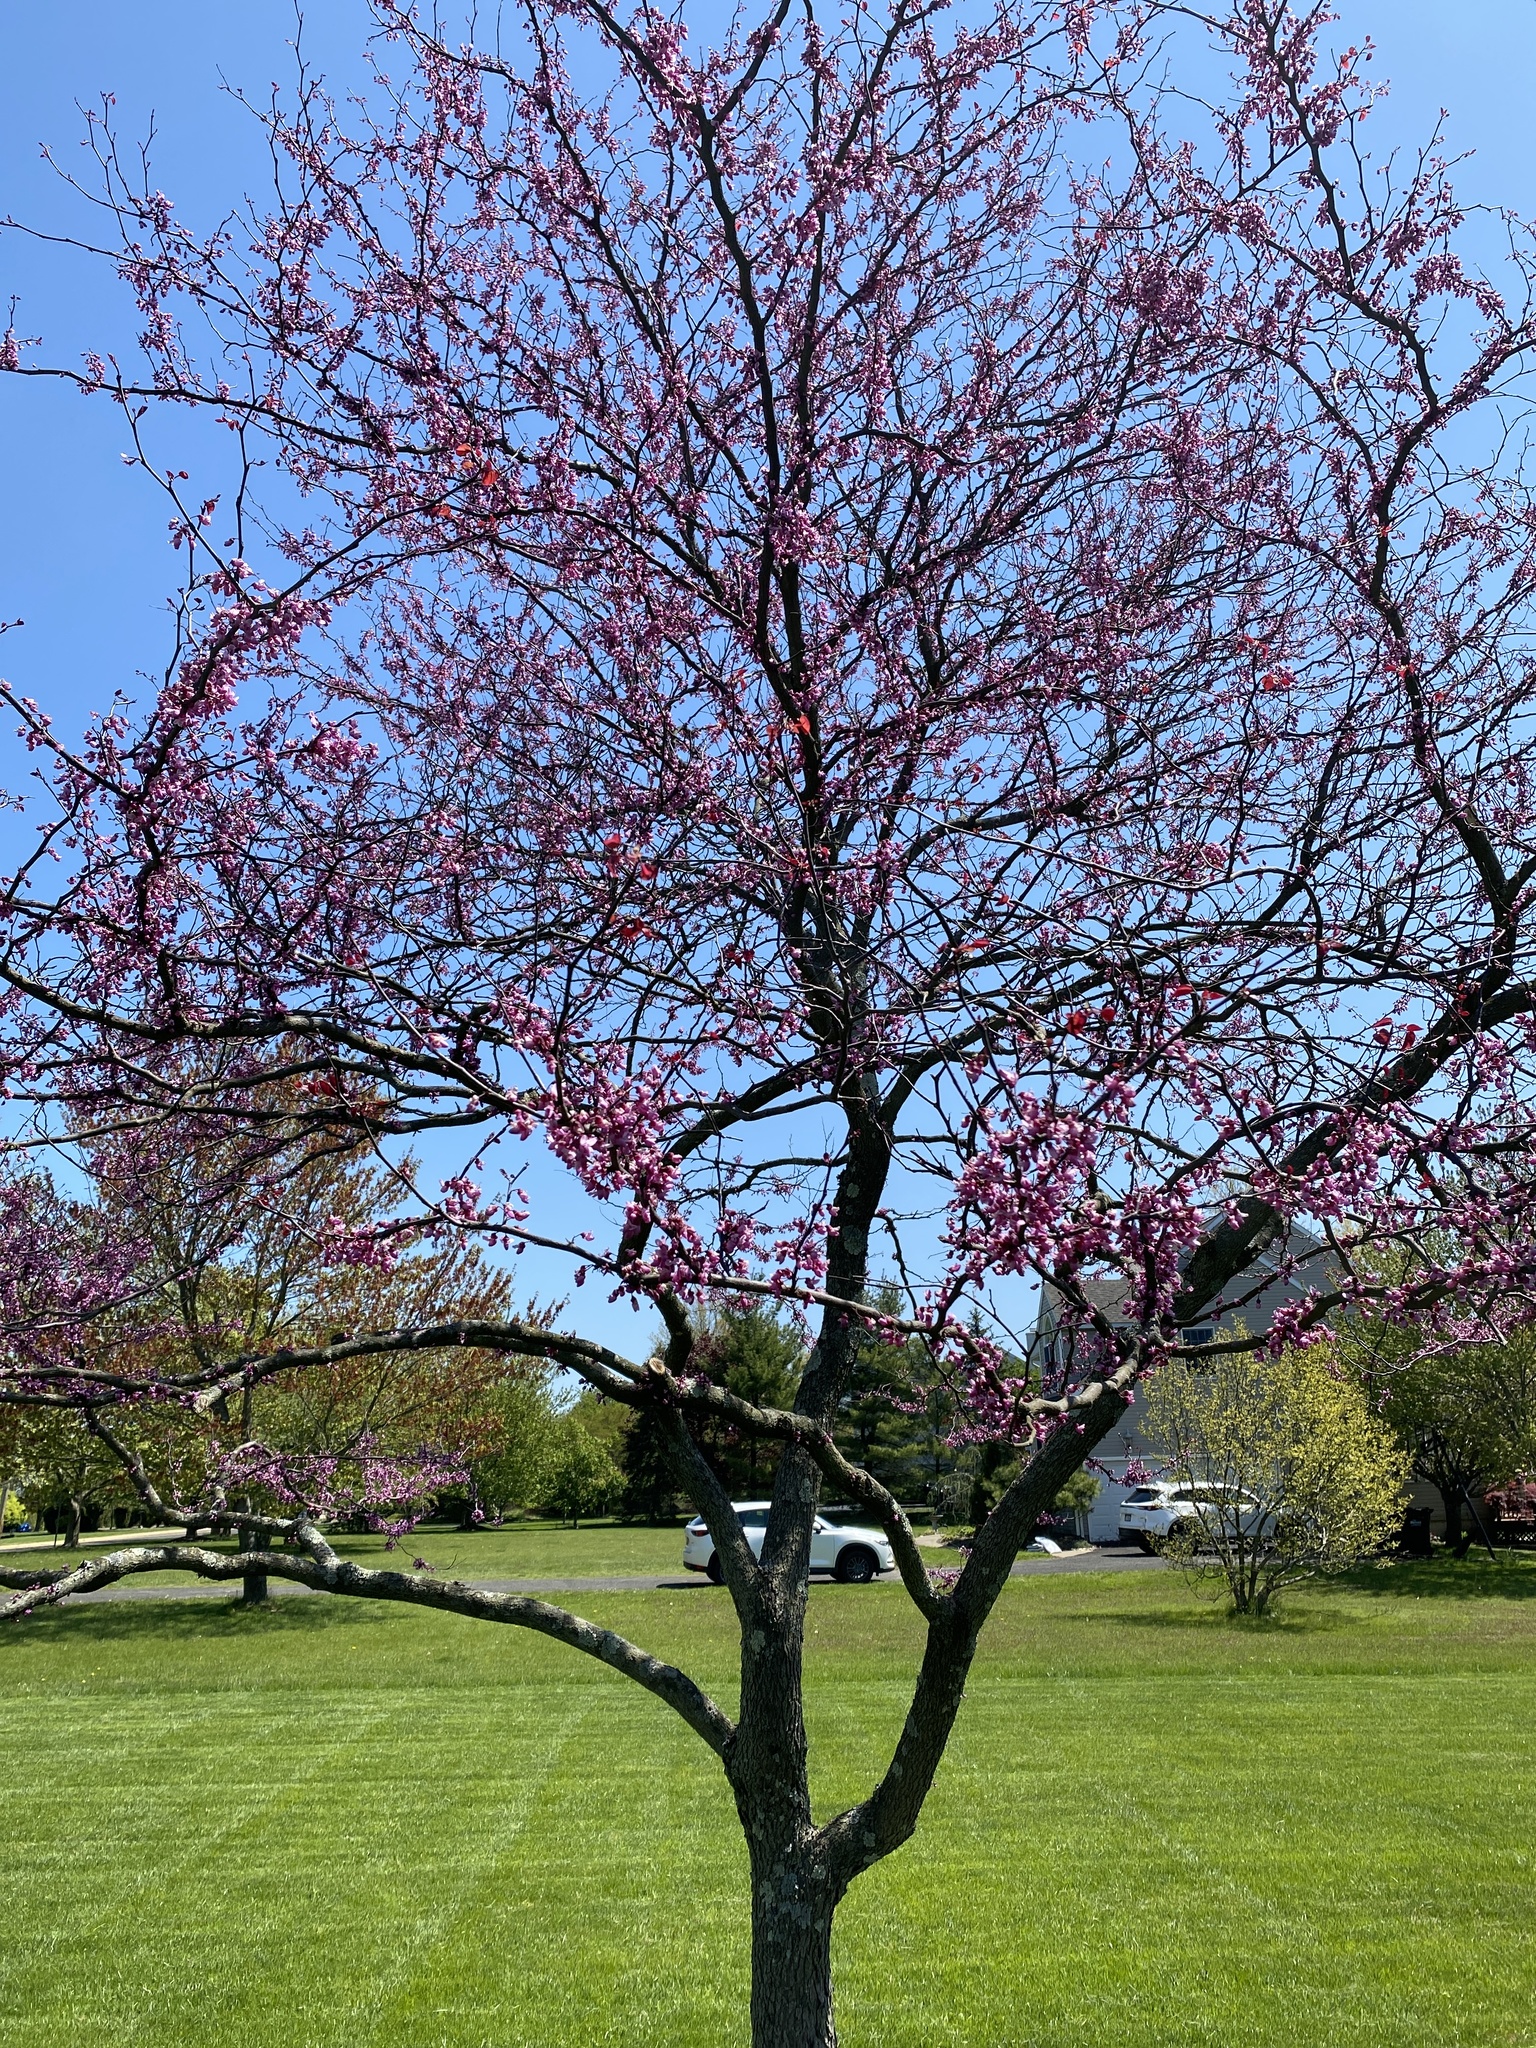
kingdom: Plantae
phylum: Tracheophyta
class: Magnoliopsida
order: Fabales
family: Fabaceae
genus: Cercis
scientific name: Cercis canadensis
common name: Eastern redbud
